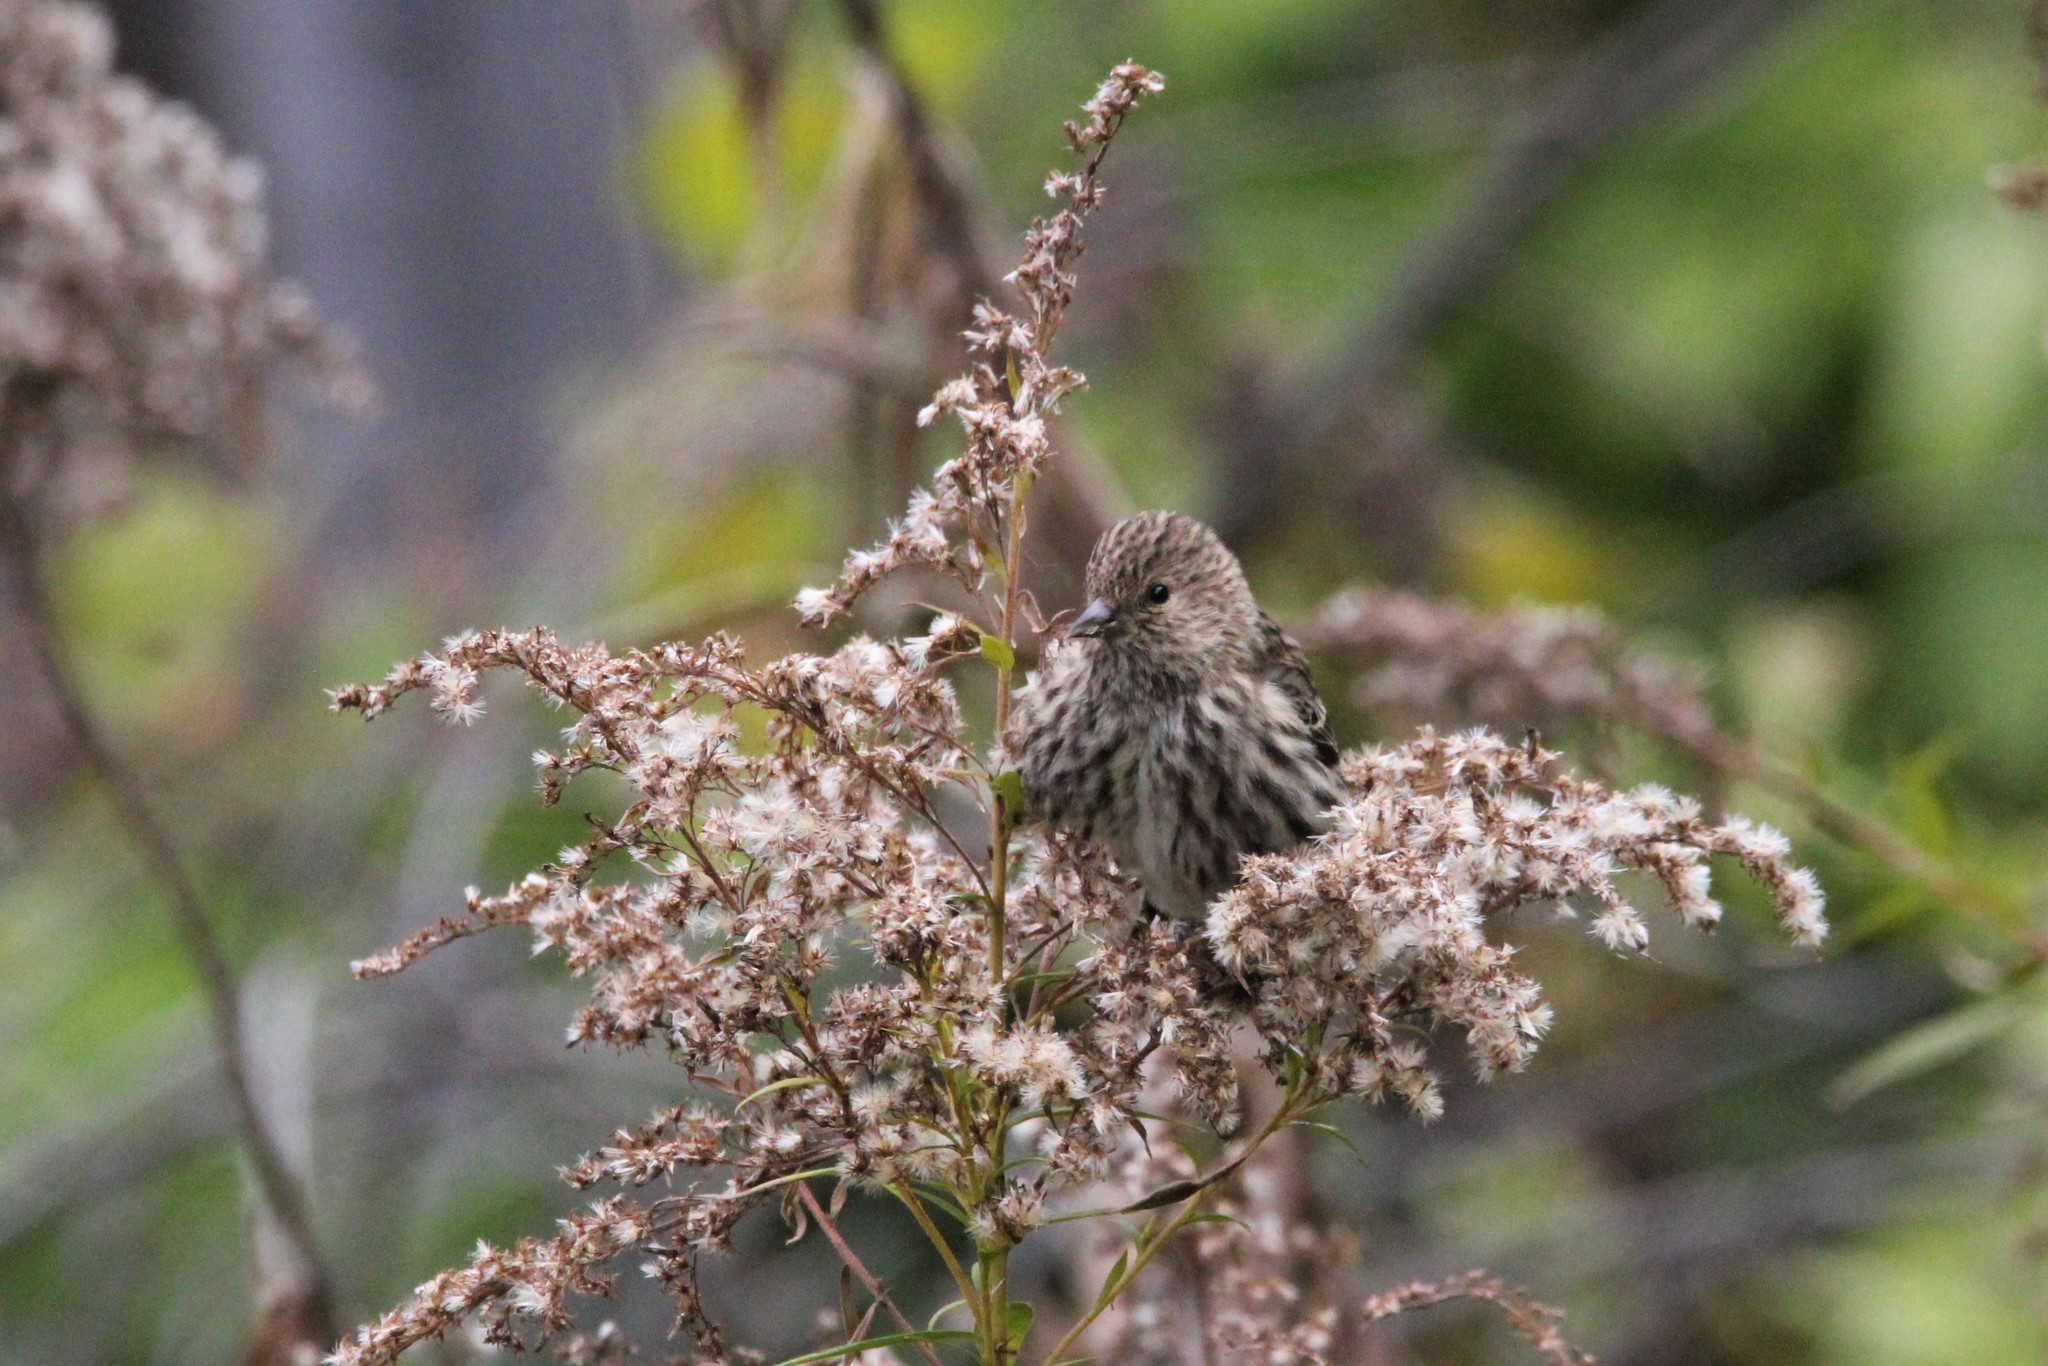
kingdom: Animalia
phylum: Chordata
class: Aves
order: Passeriformes
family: Fringillidae
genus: Spinus
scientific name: Spinus pinus
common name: Pine siskin
